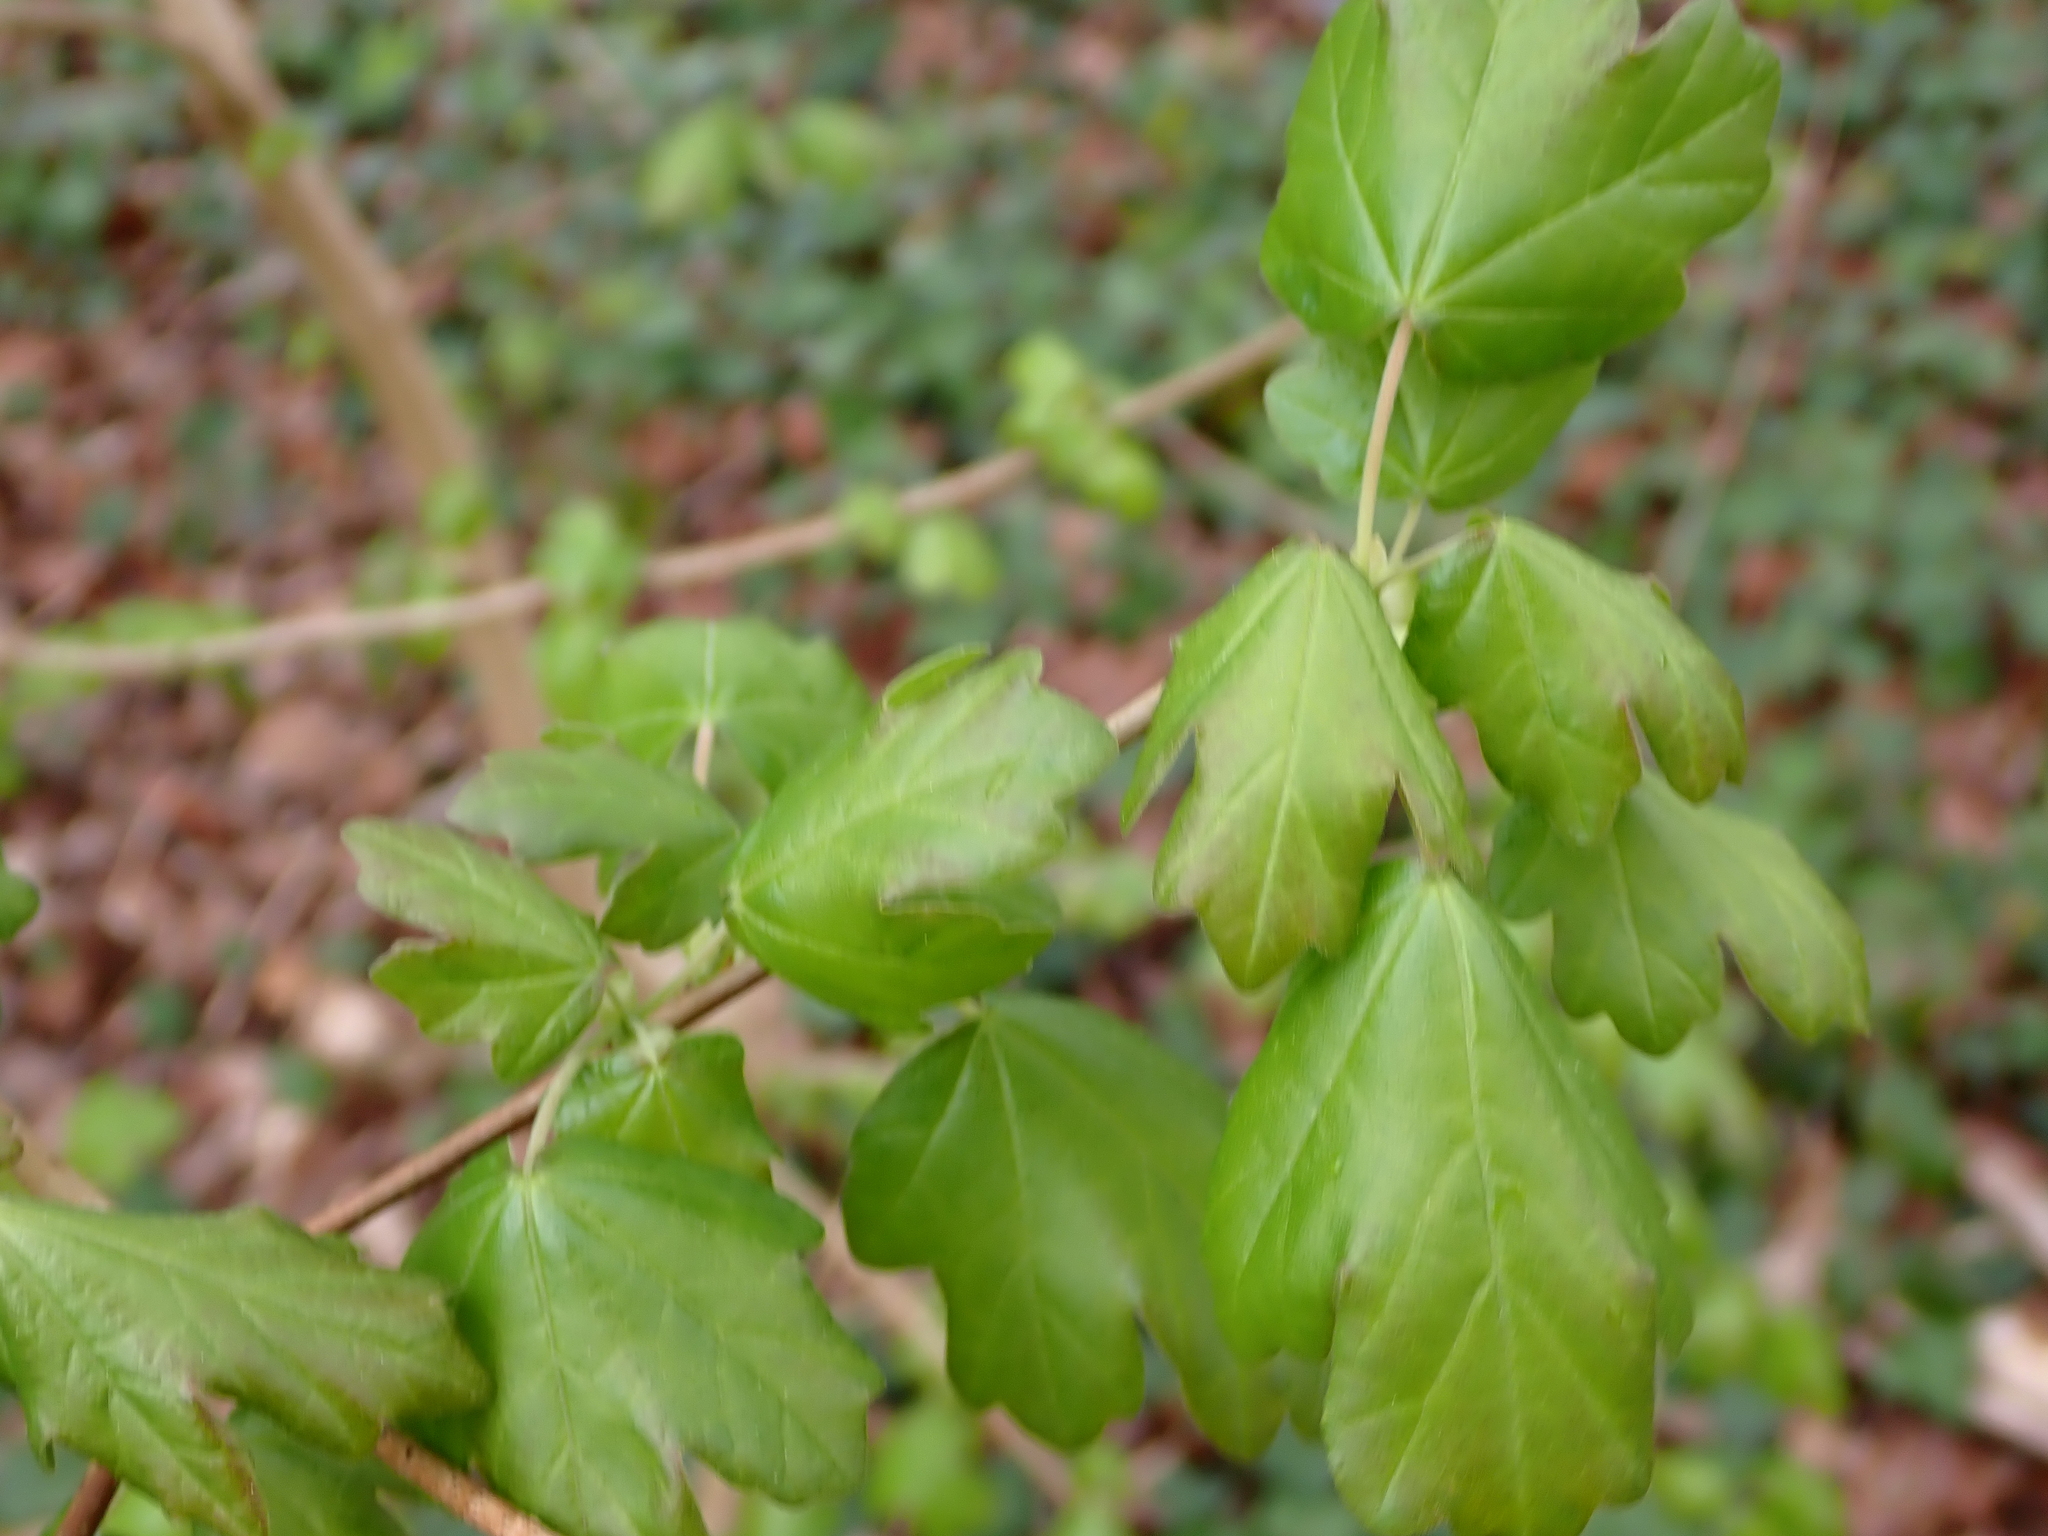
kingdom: Plantae
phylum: Tracheophyta
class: Magnoliopsida
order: Sapindales
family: Sapindaceae
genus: Acer
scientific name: Acer campestre
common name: Field maple
